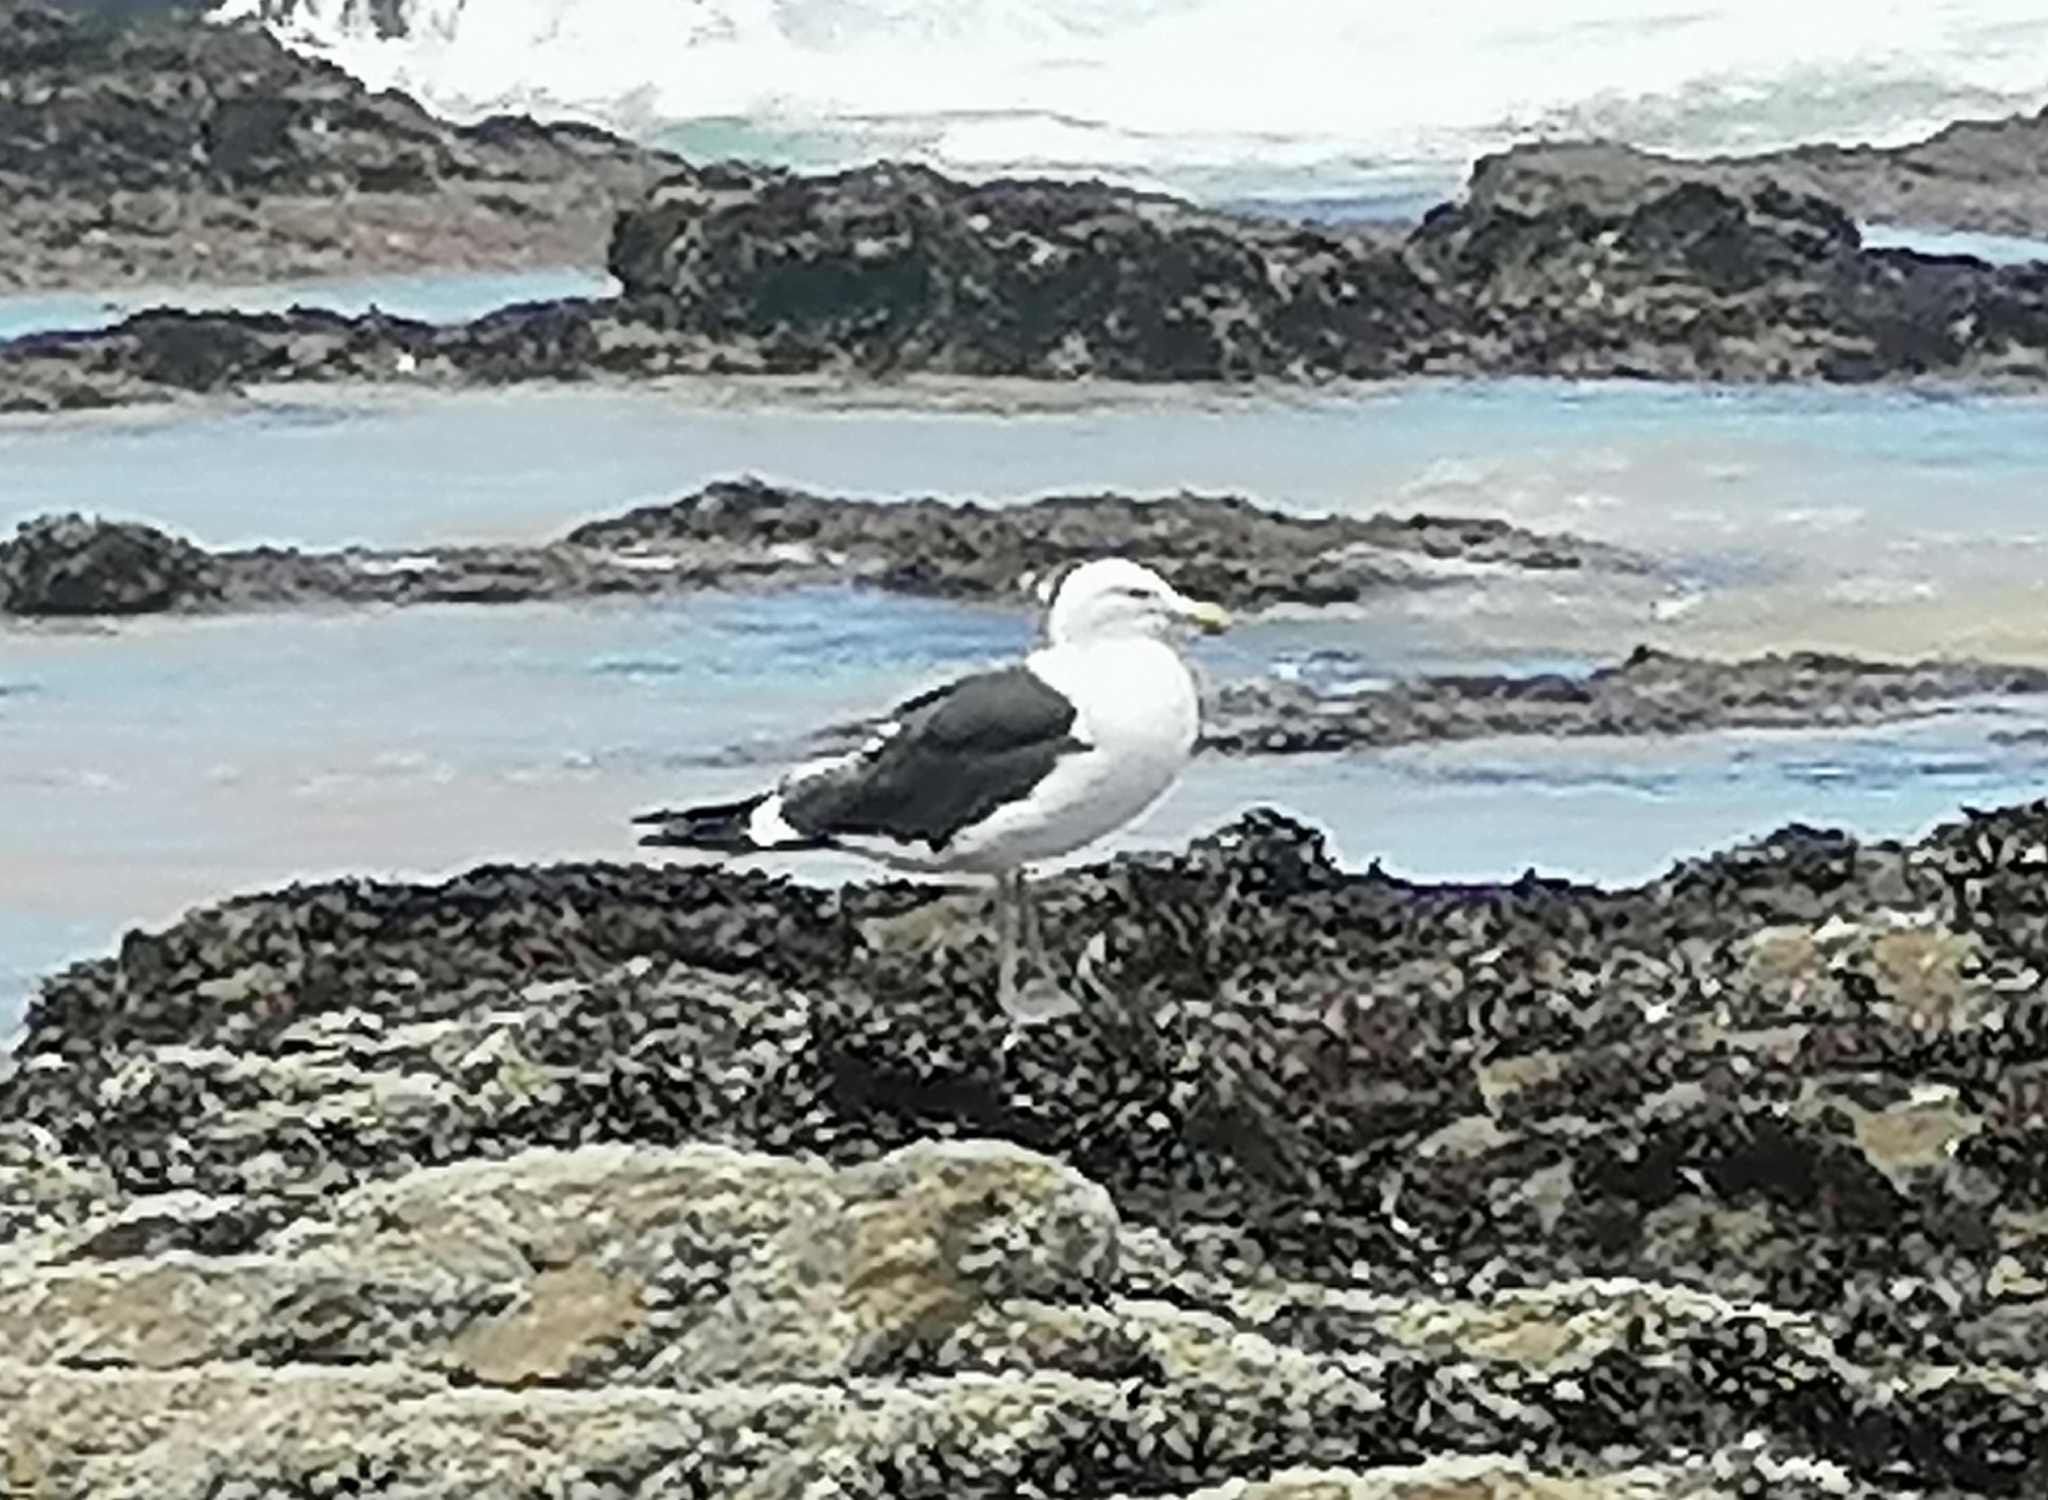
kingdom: Animalia
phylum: Chordata
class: Aves
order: Charadriiformes
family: Laridae
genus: Larus
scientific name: Larus dominicanus
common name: Kelp gull
